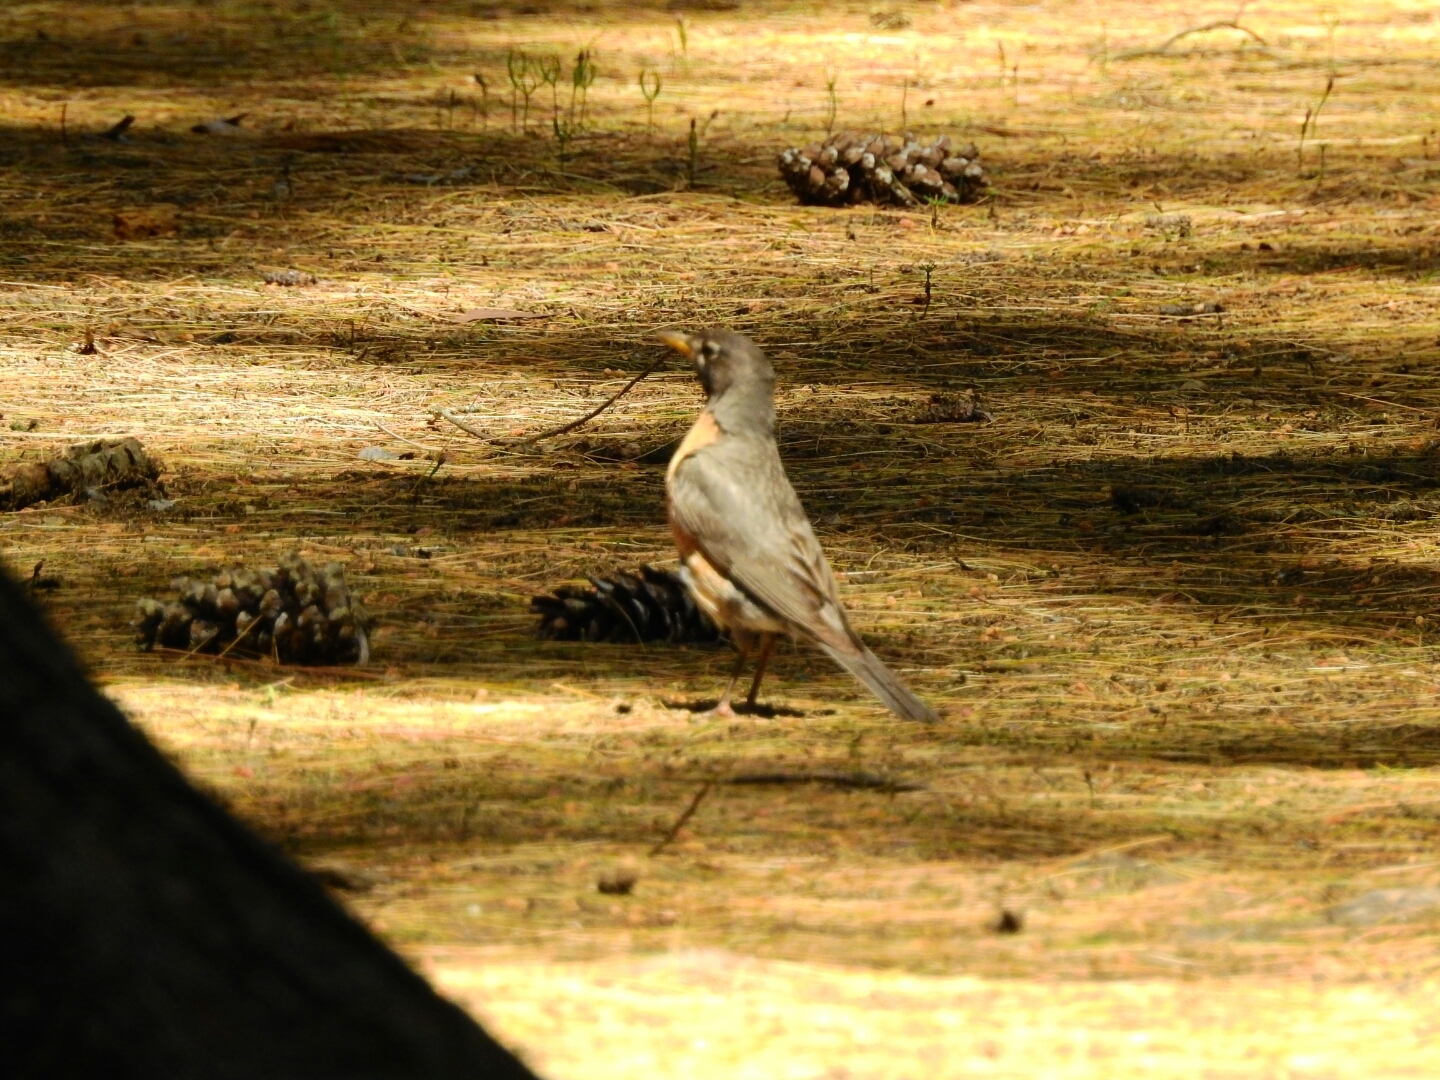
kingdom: Animalia
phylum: Chordata
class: Aves
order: Passeriformes
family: Turdidae
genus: Turdus
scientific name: Turdus migratorius
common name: American robin
